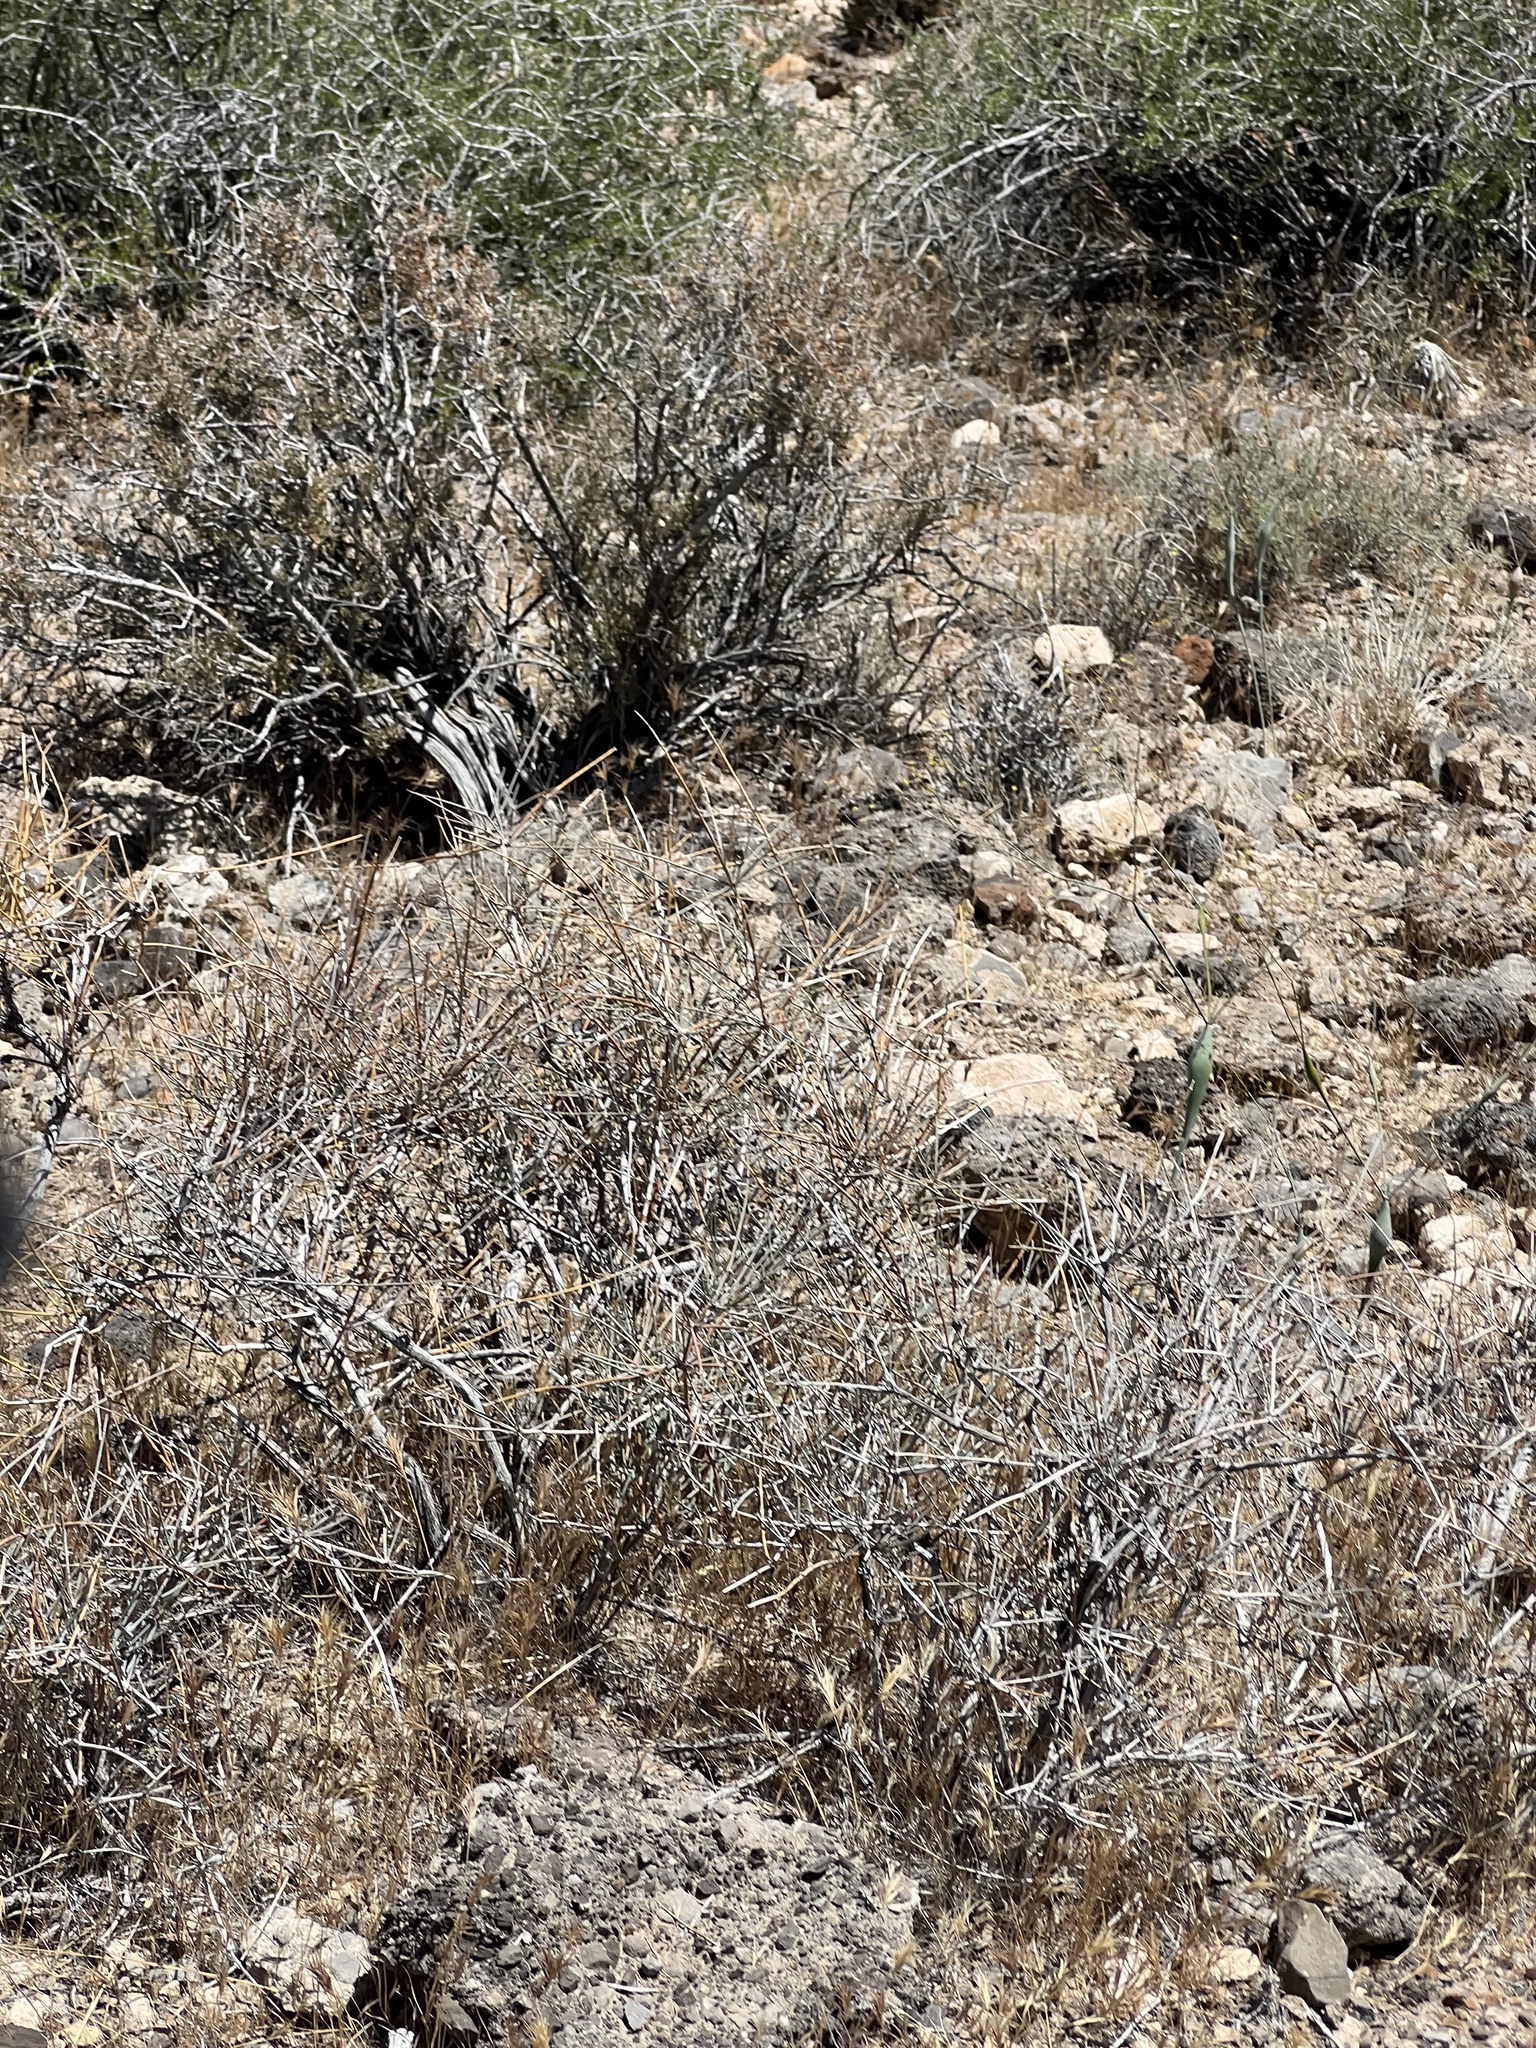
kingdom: Plantae
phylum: Tracheophyta
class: Gnetopsida
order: Ephedrales
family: Ephedraceae
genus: Ephedra
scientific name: Ephedra nevadensis
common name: Gray ephedra
